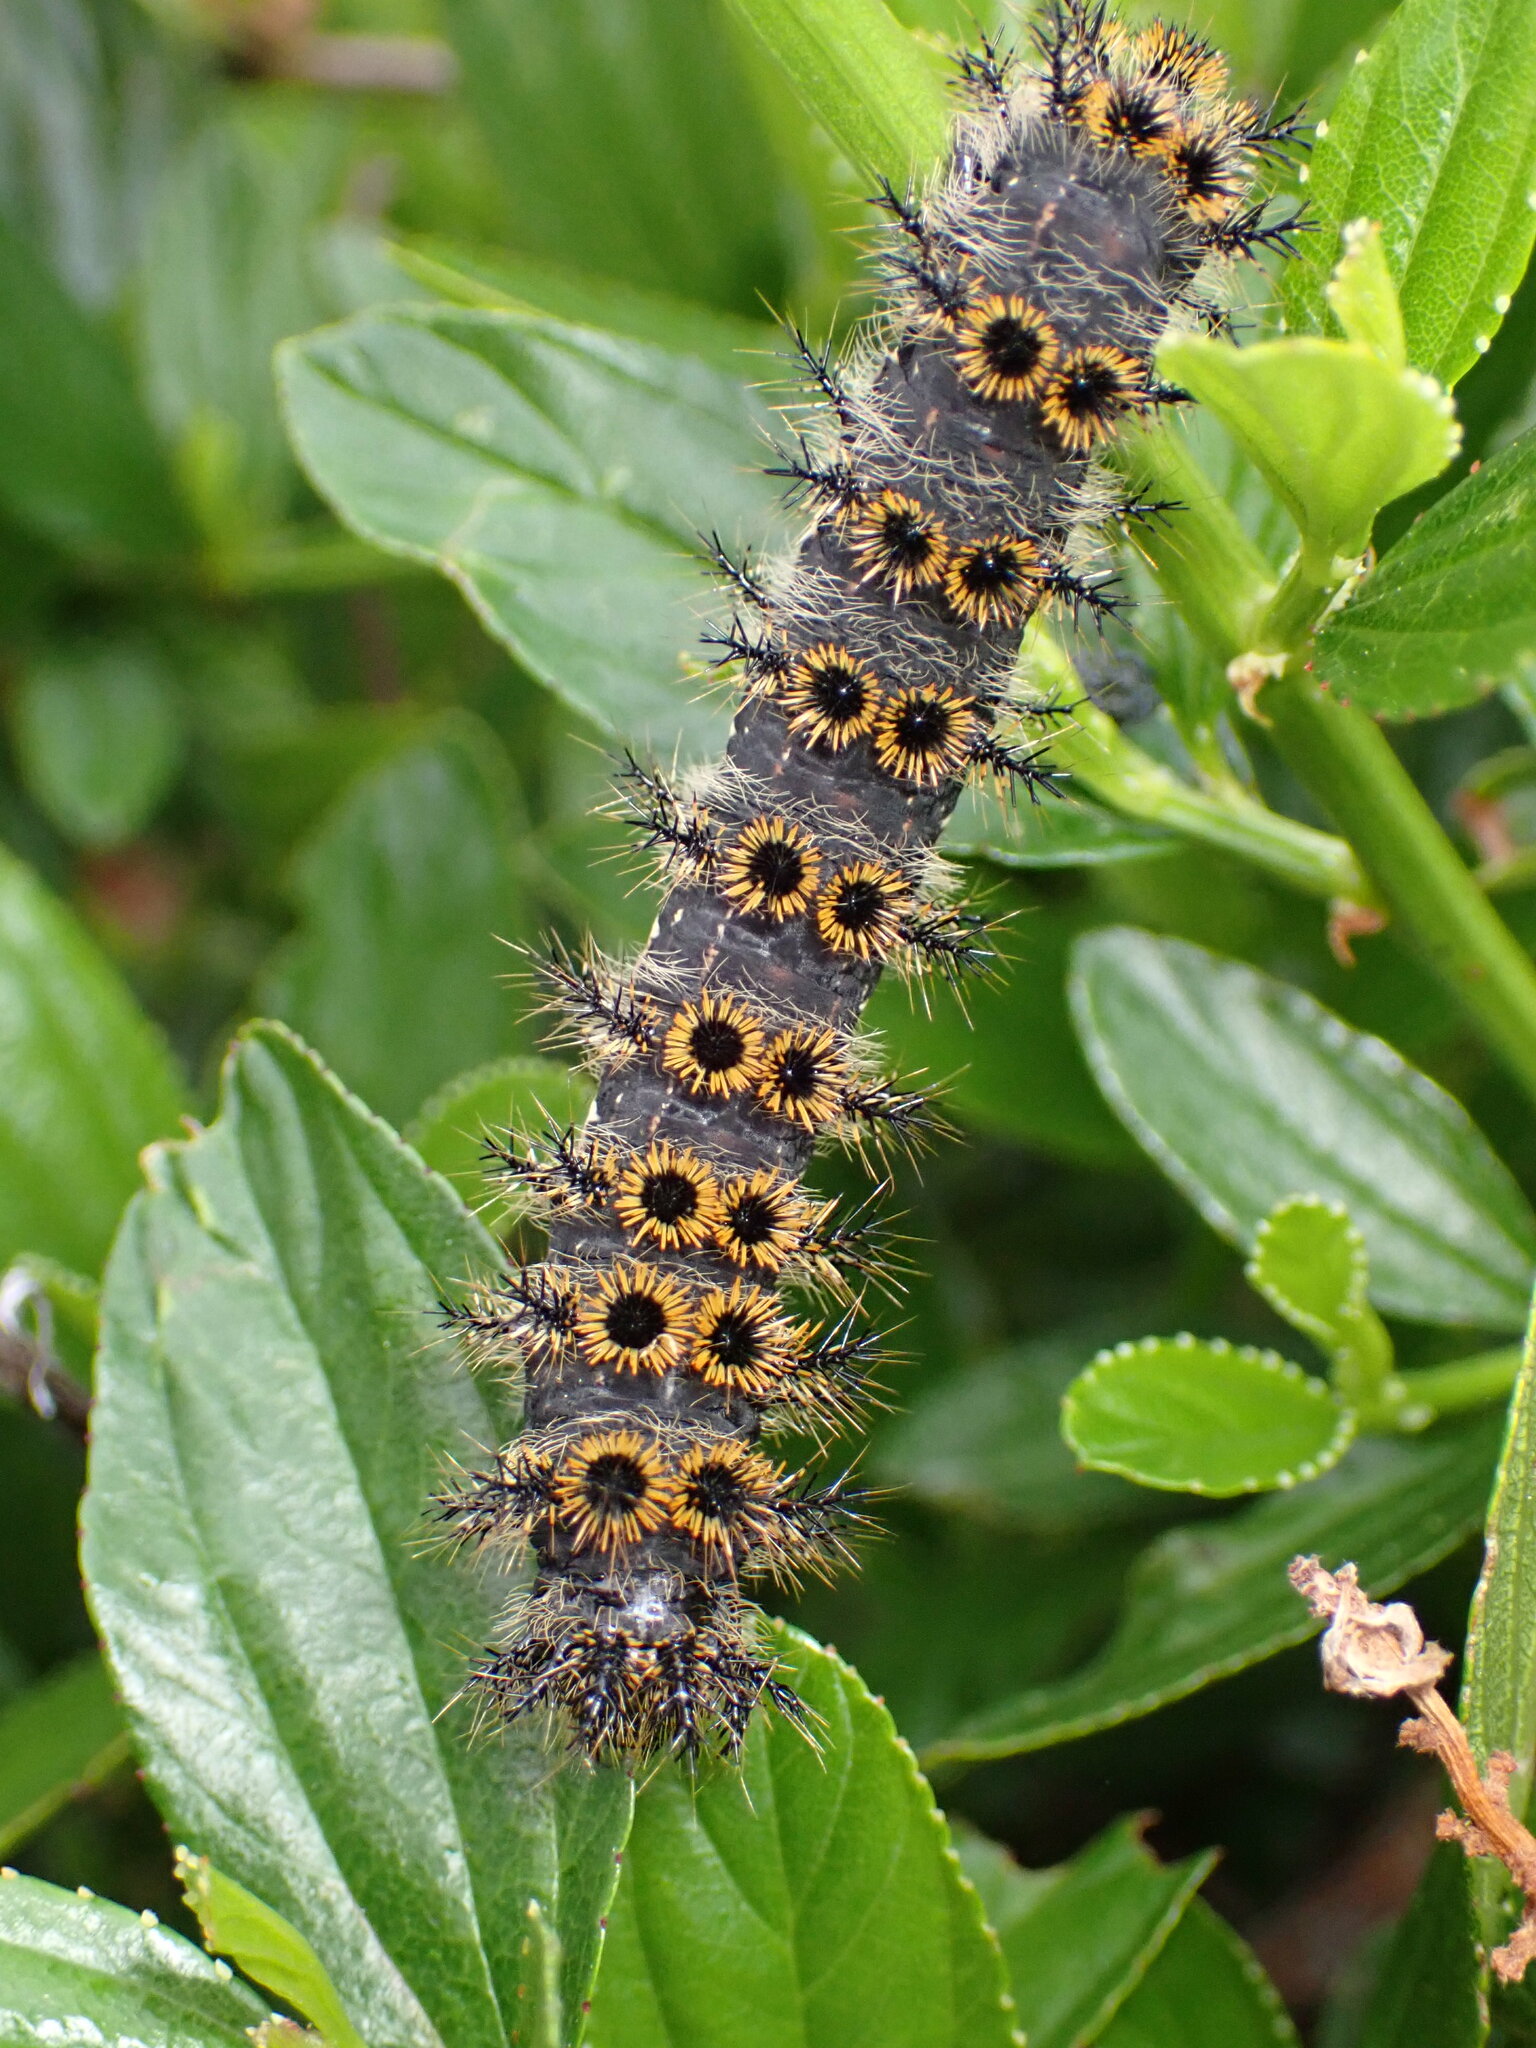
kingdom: Animalia
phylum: Arthropoda
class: Insecta
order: Lepidoptera
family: Saturniidae
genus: Hemileuca
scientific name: Hemileuca eglanterina
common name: Western sheepmoth
